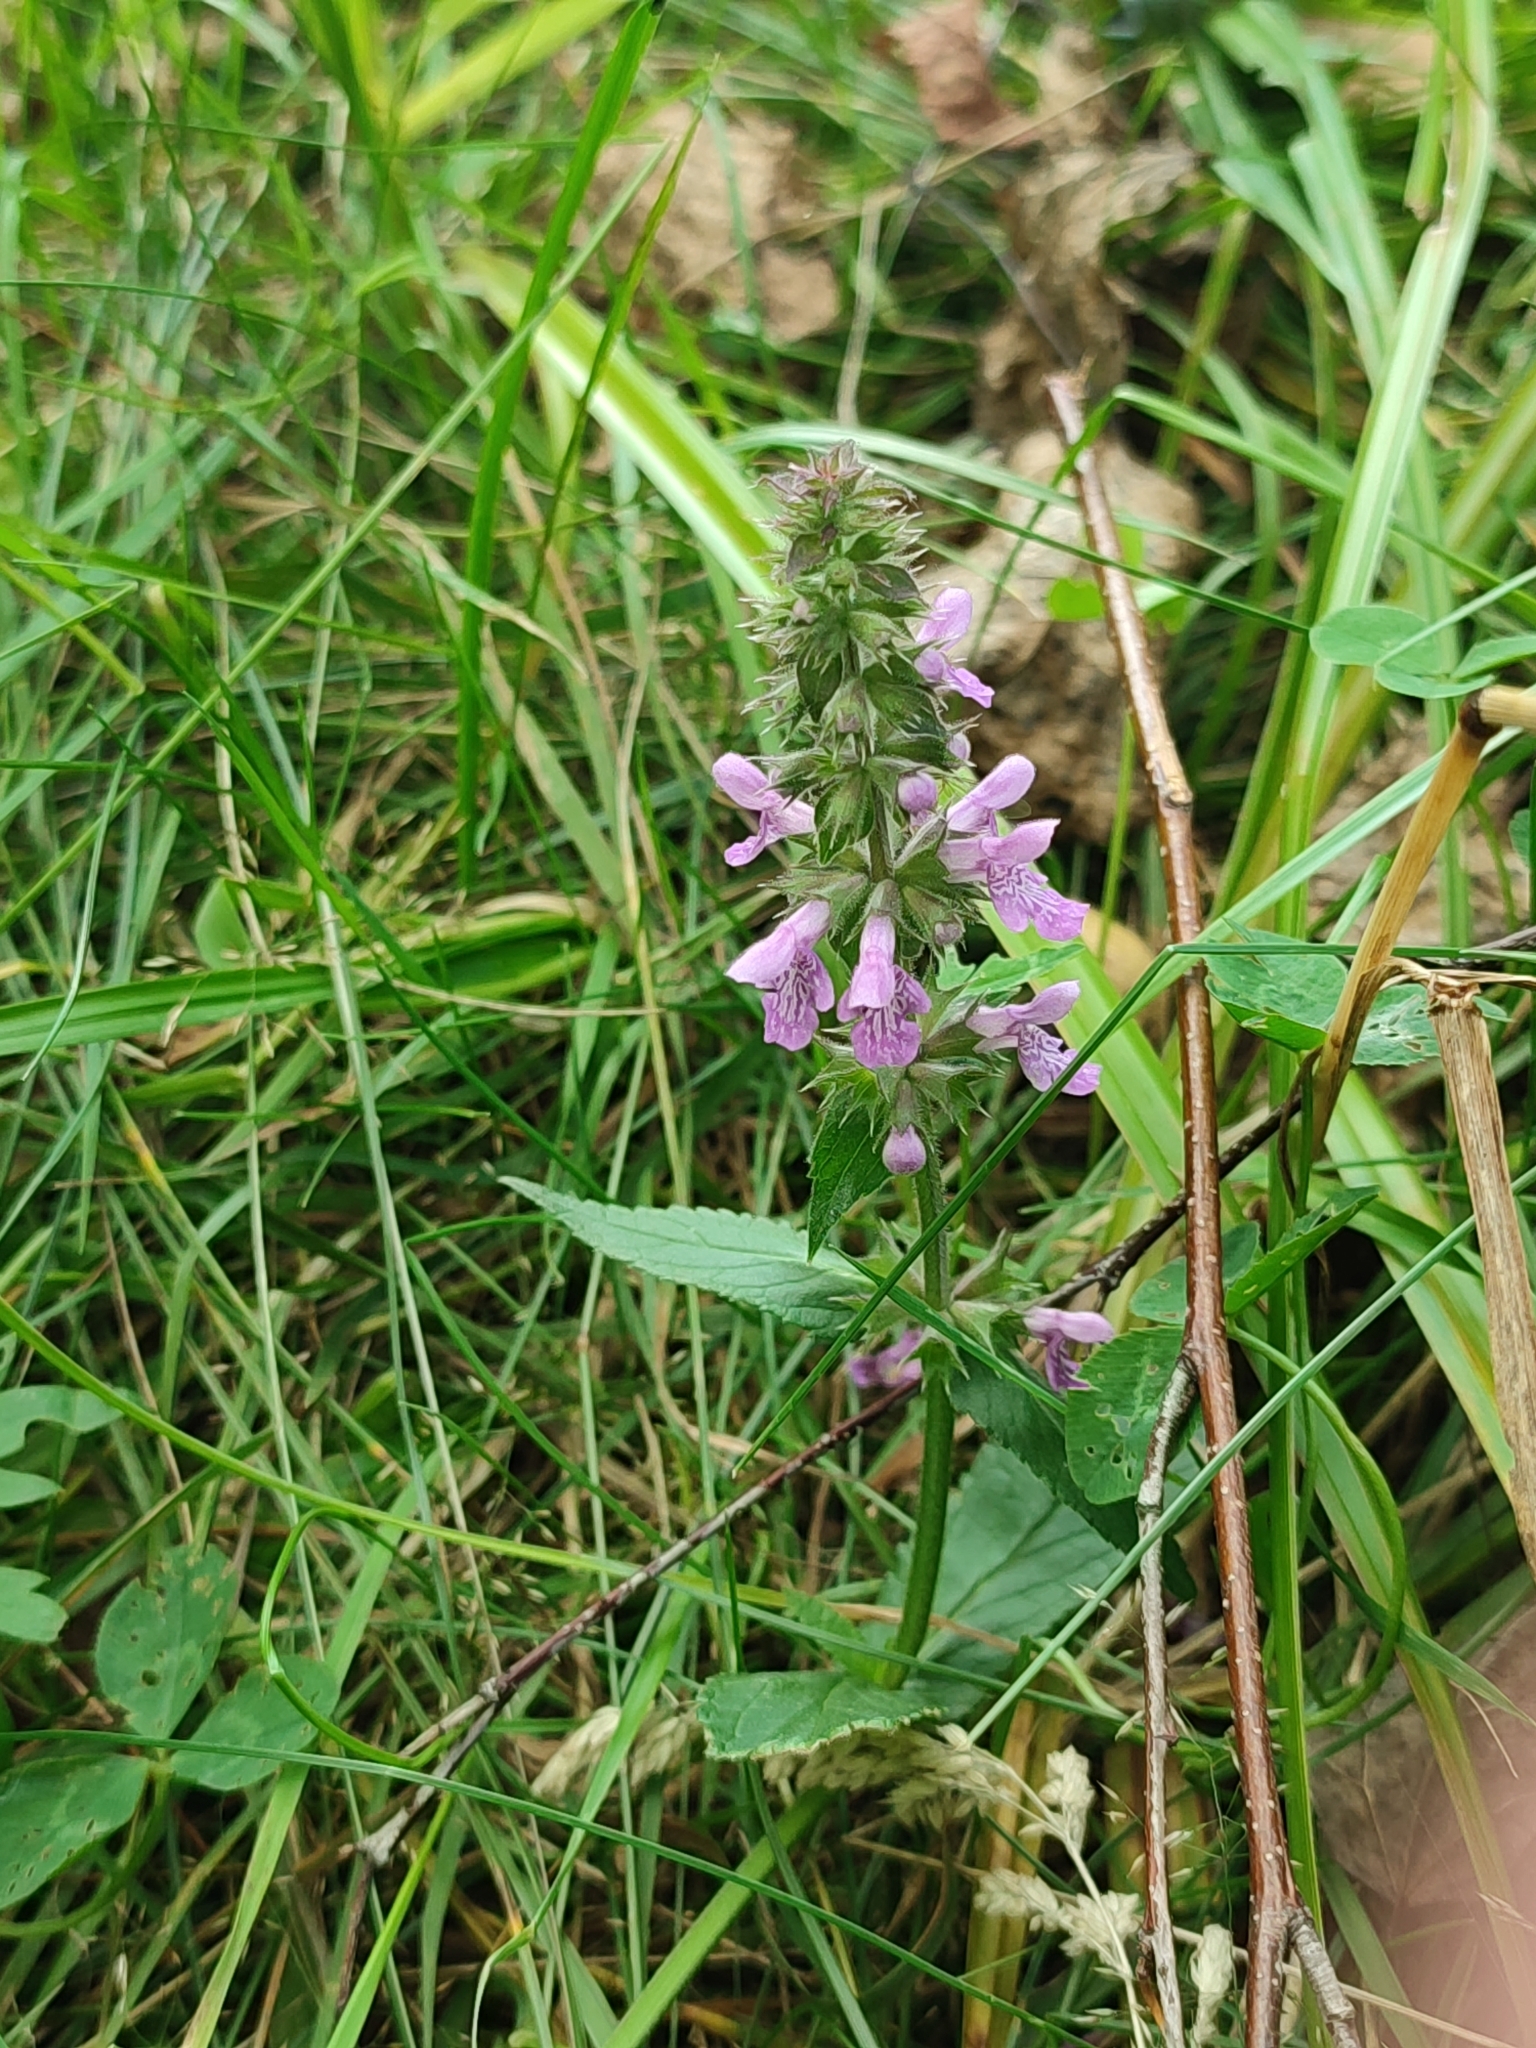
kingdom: Plantae
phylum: Tracheophyta
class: Magnoliopsida
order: Lamiales
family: Lamiaceae
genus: Stachys
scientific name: Stachys palustris
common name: Marsh woundwort
